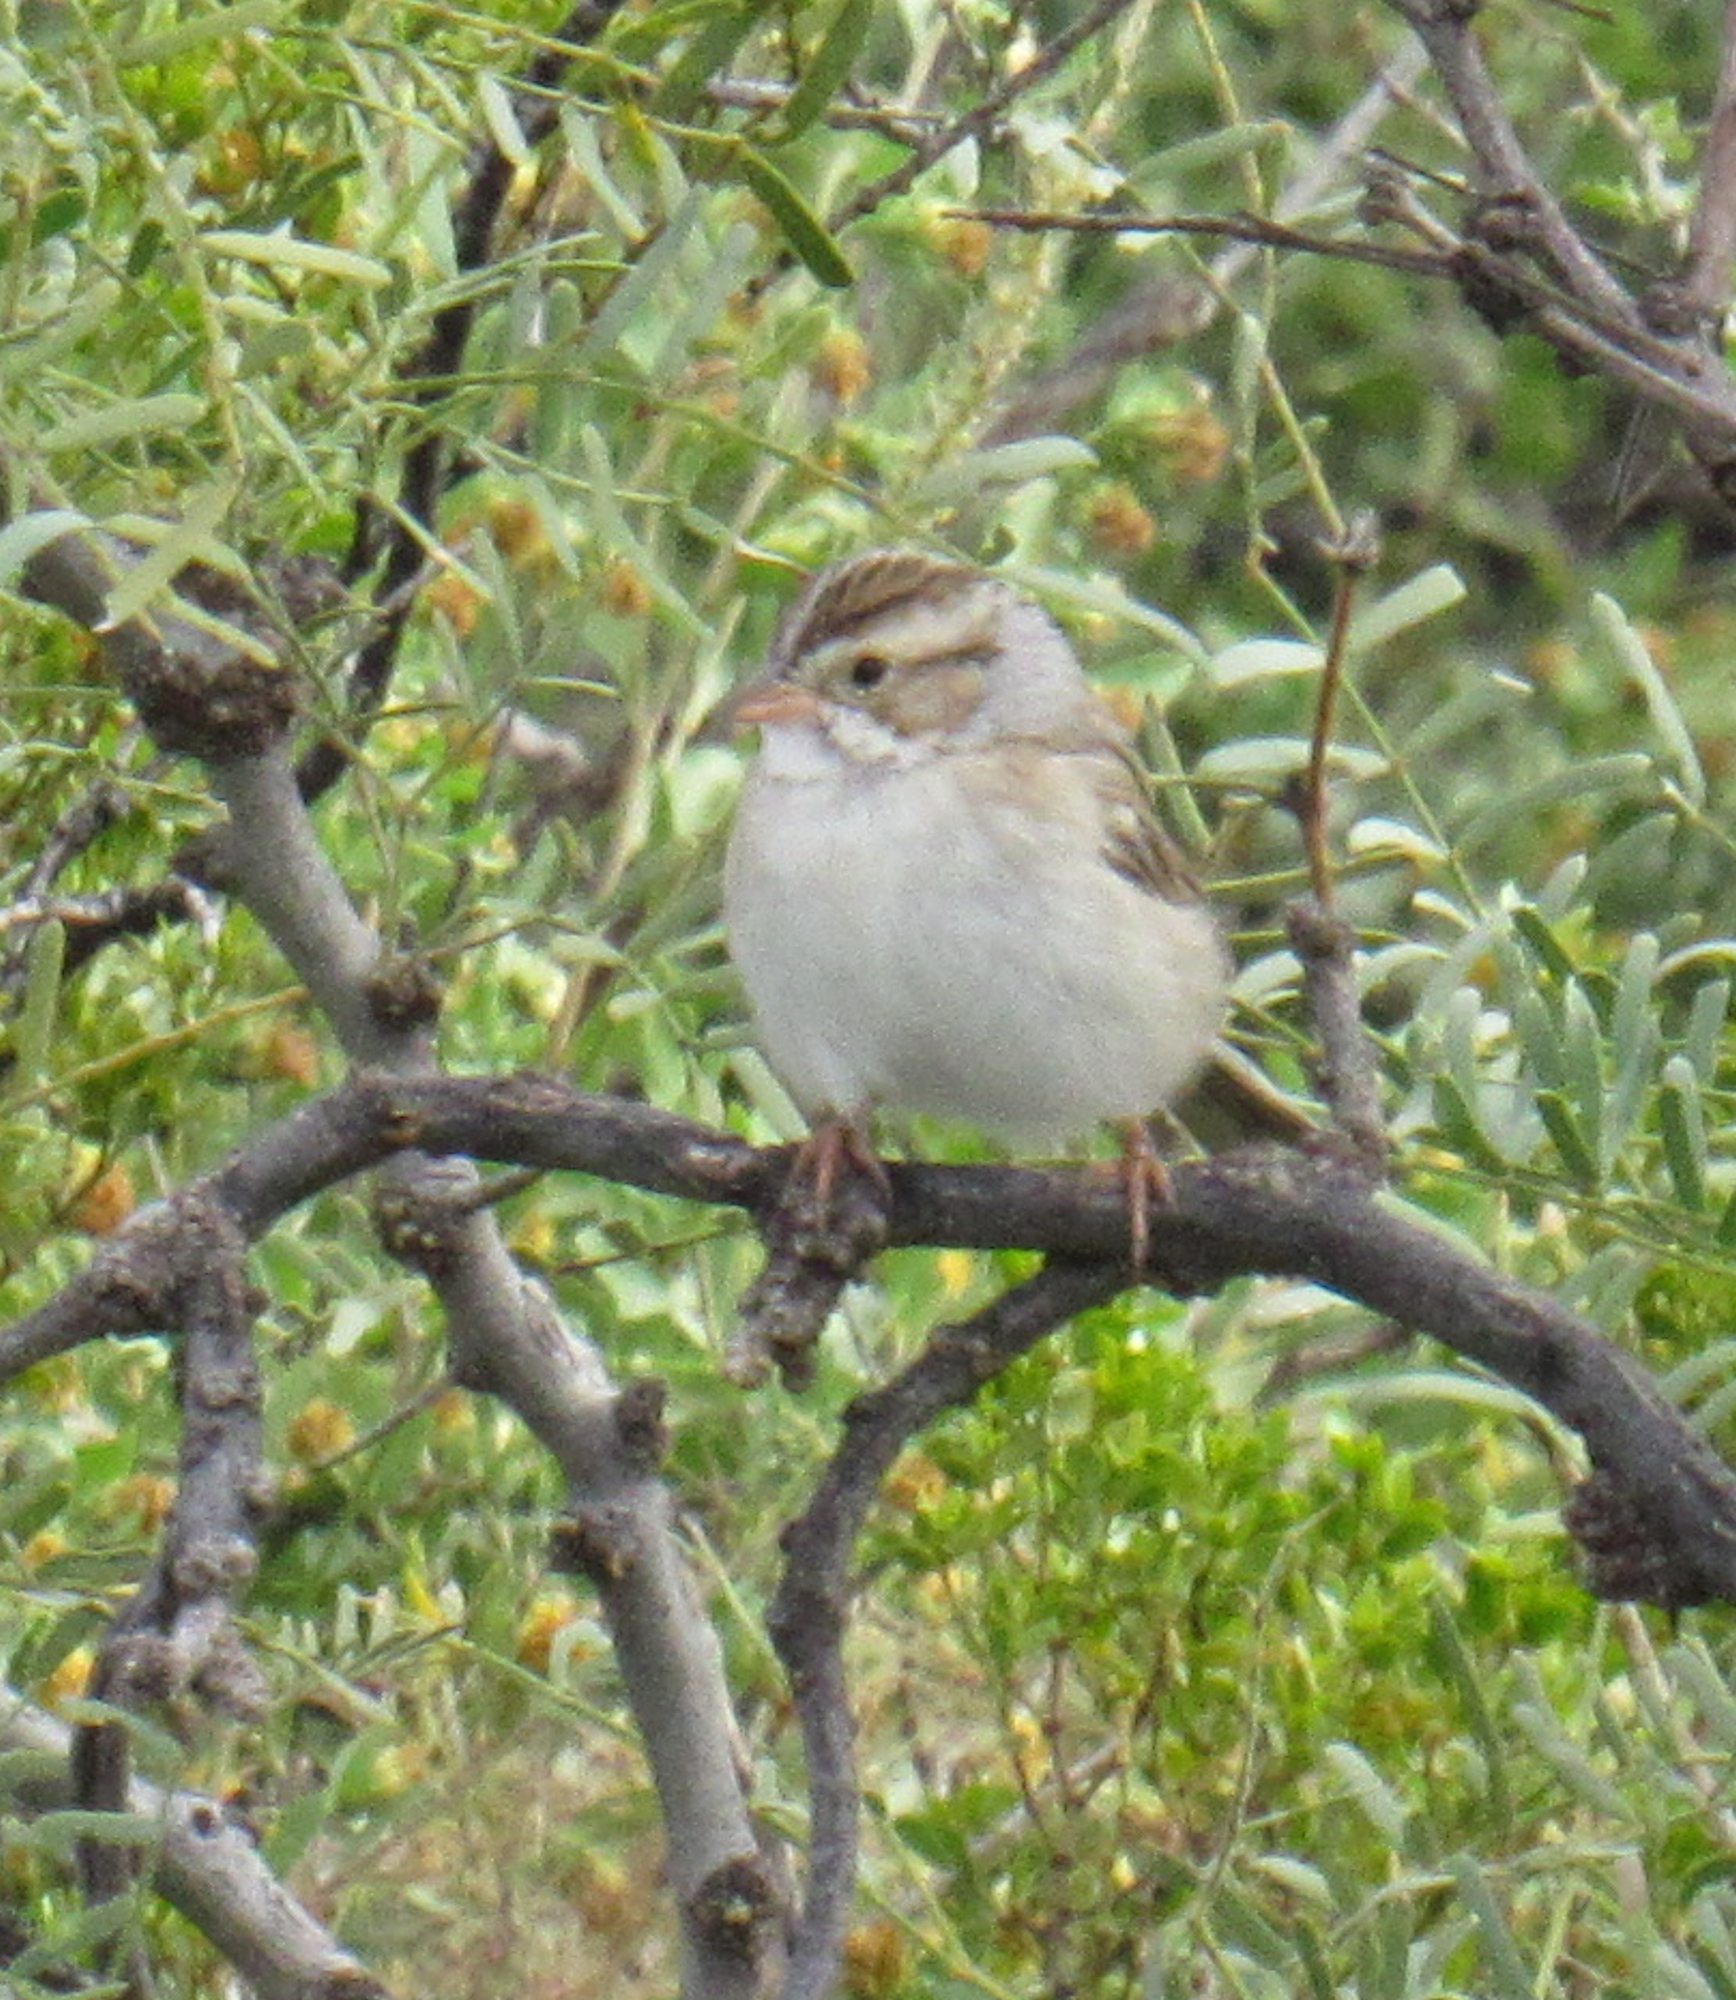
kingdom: Animalia
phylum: Chordata
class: Aves
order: Passeriformes
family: Passerellidae
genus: Spizella
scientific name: Spizella pallida
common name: Clay-colored sparrow
